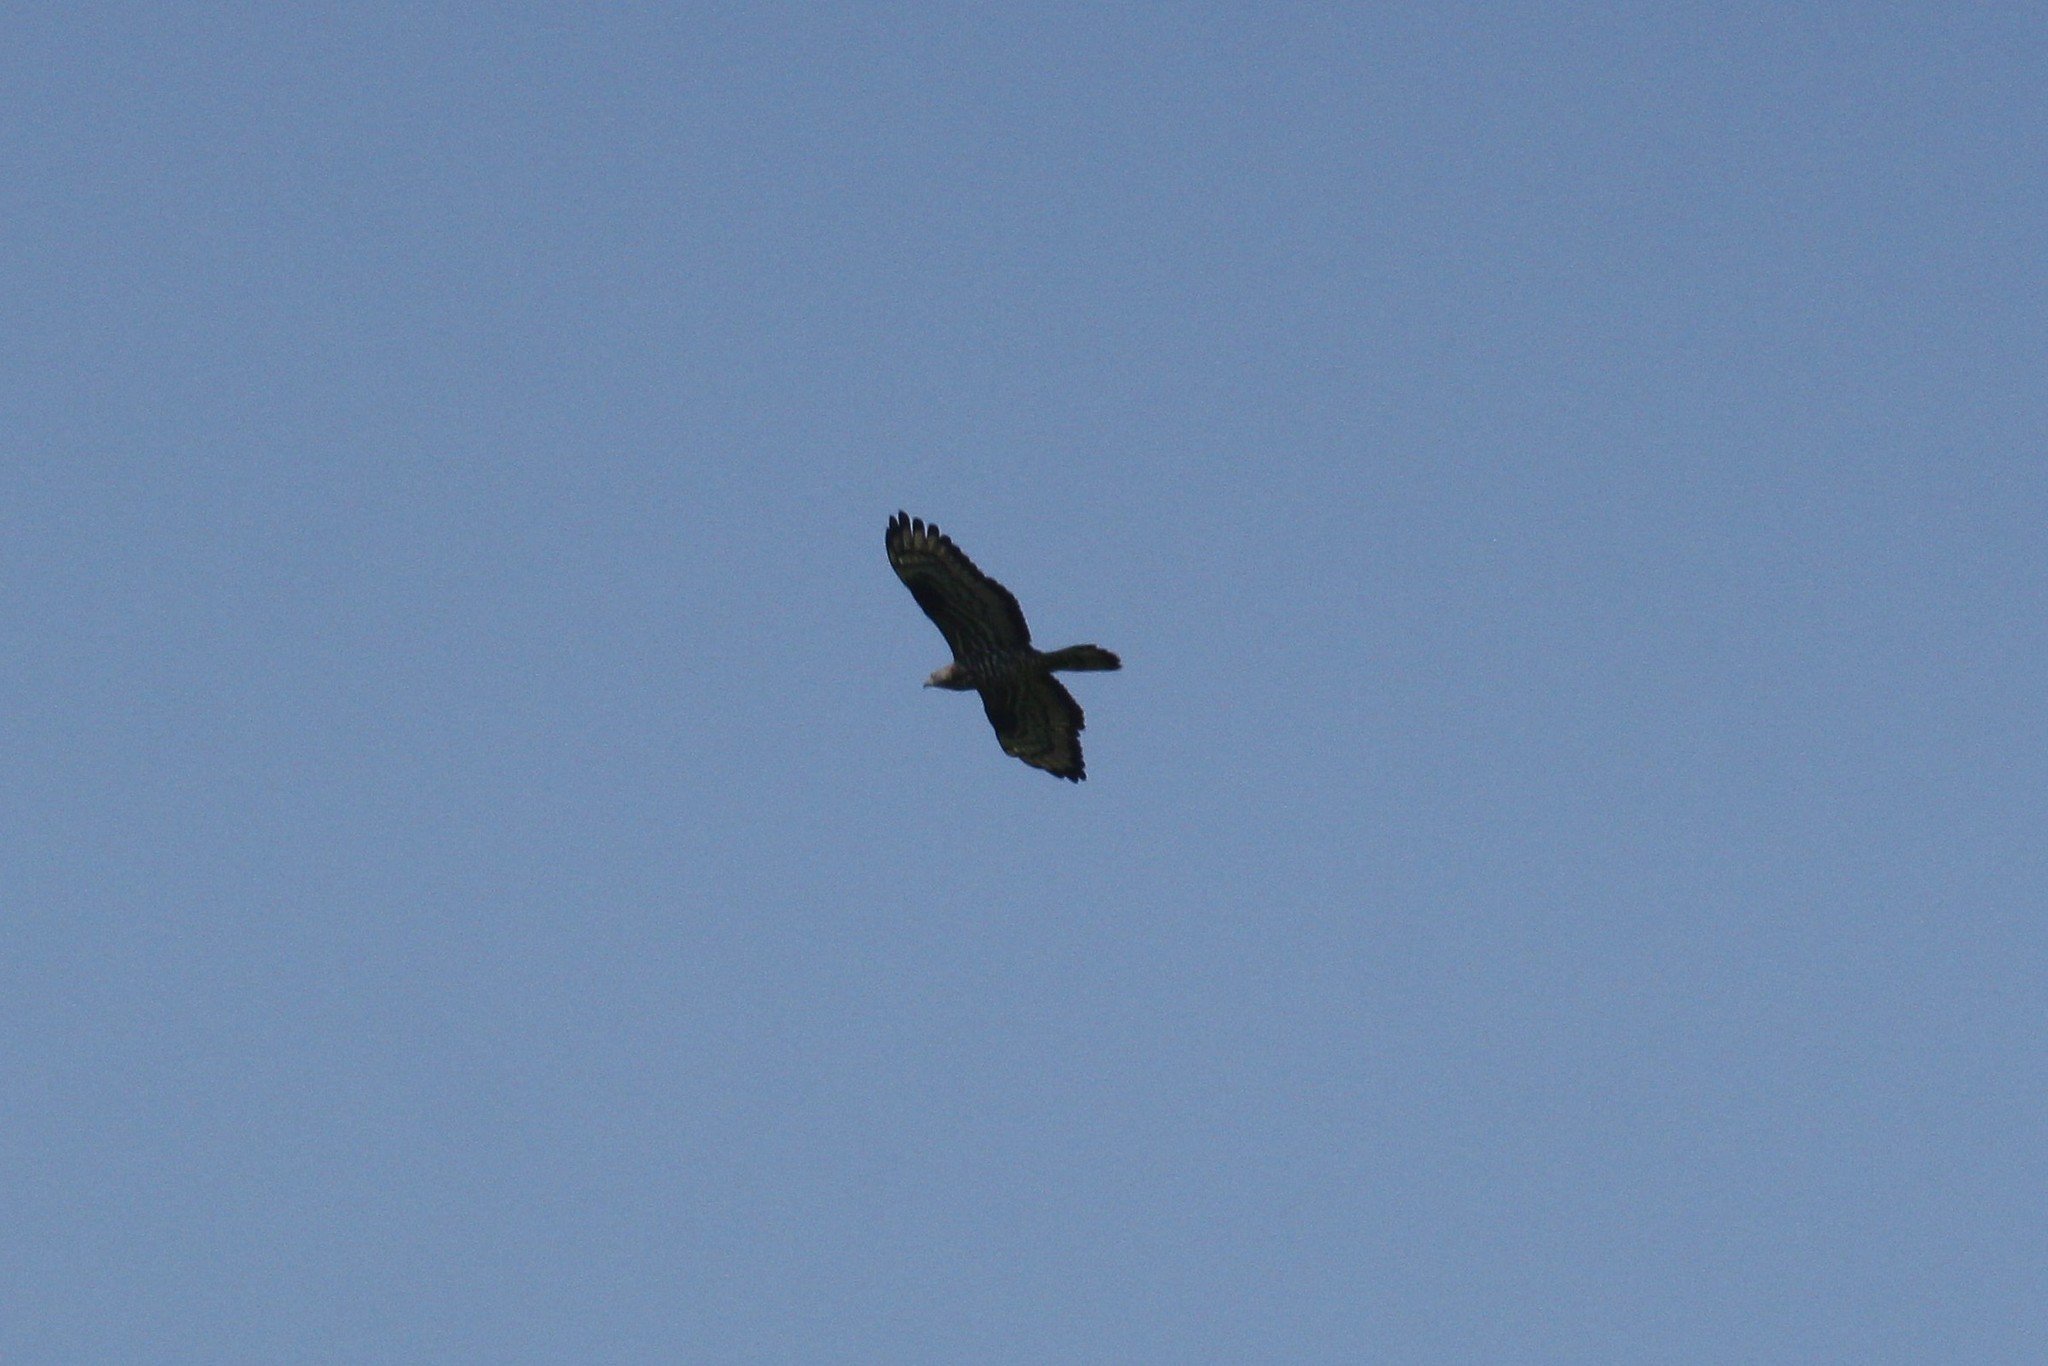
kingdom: Animalia
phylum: Chordata
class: Aves
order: Accipitriformes
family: Accipitridae
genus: Pernis
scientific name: Pernis apivorus
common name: European honey buzzard
